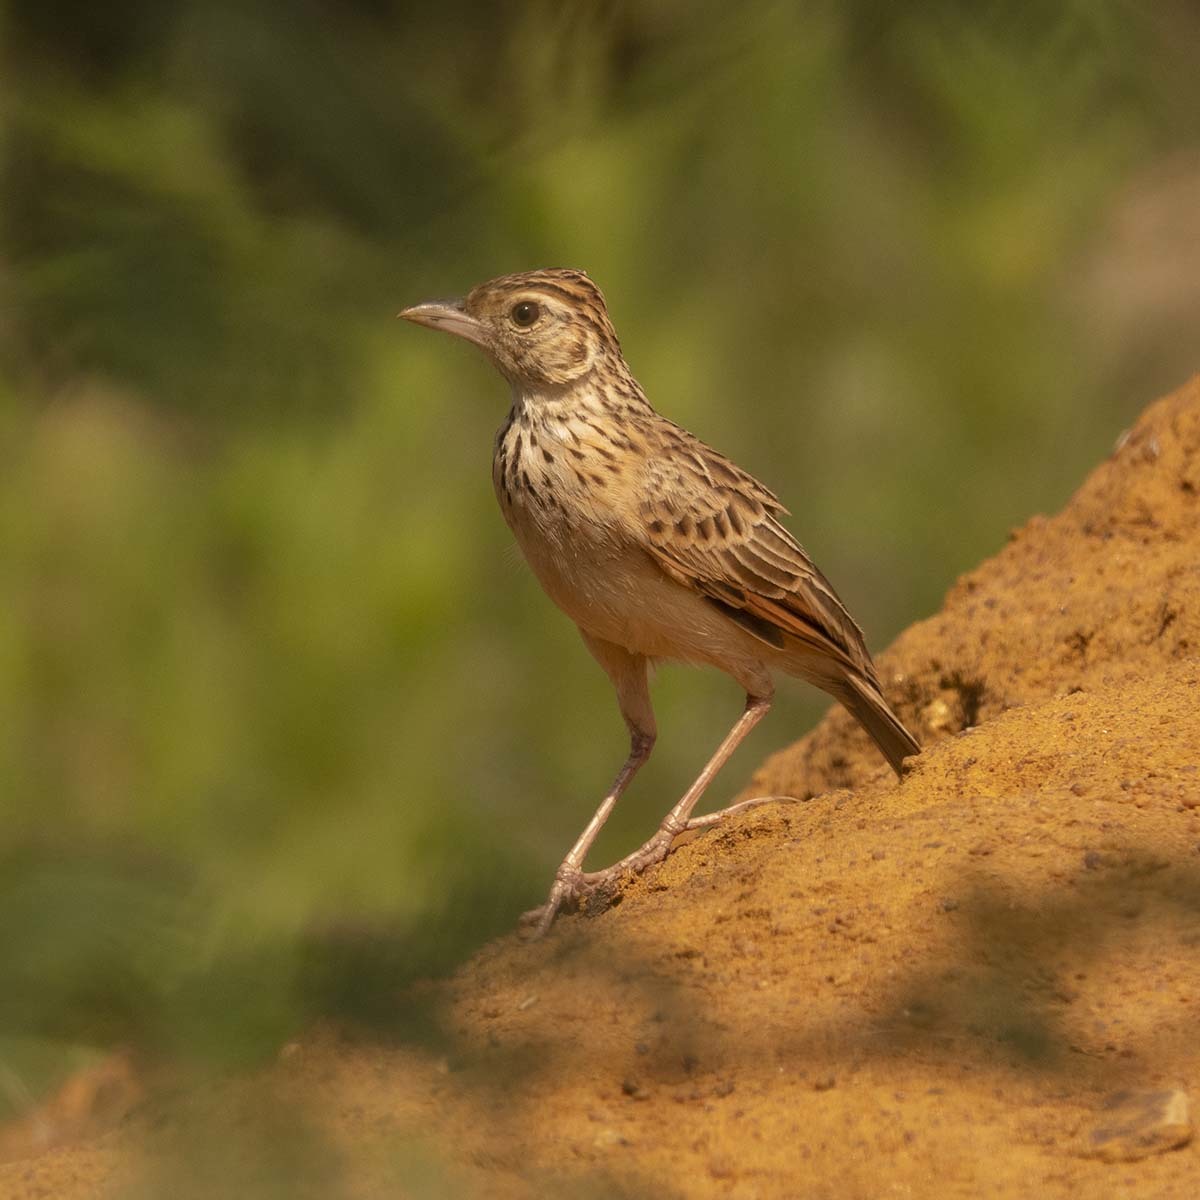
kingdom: Animalia
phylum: Chordata
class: Aves
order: Passeriformes
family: Alaudidae
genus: Mirafra
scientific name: Mirafra affinis
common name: Jerdon's bushlark
